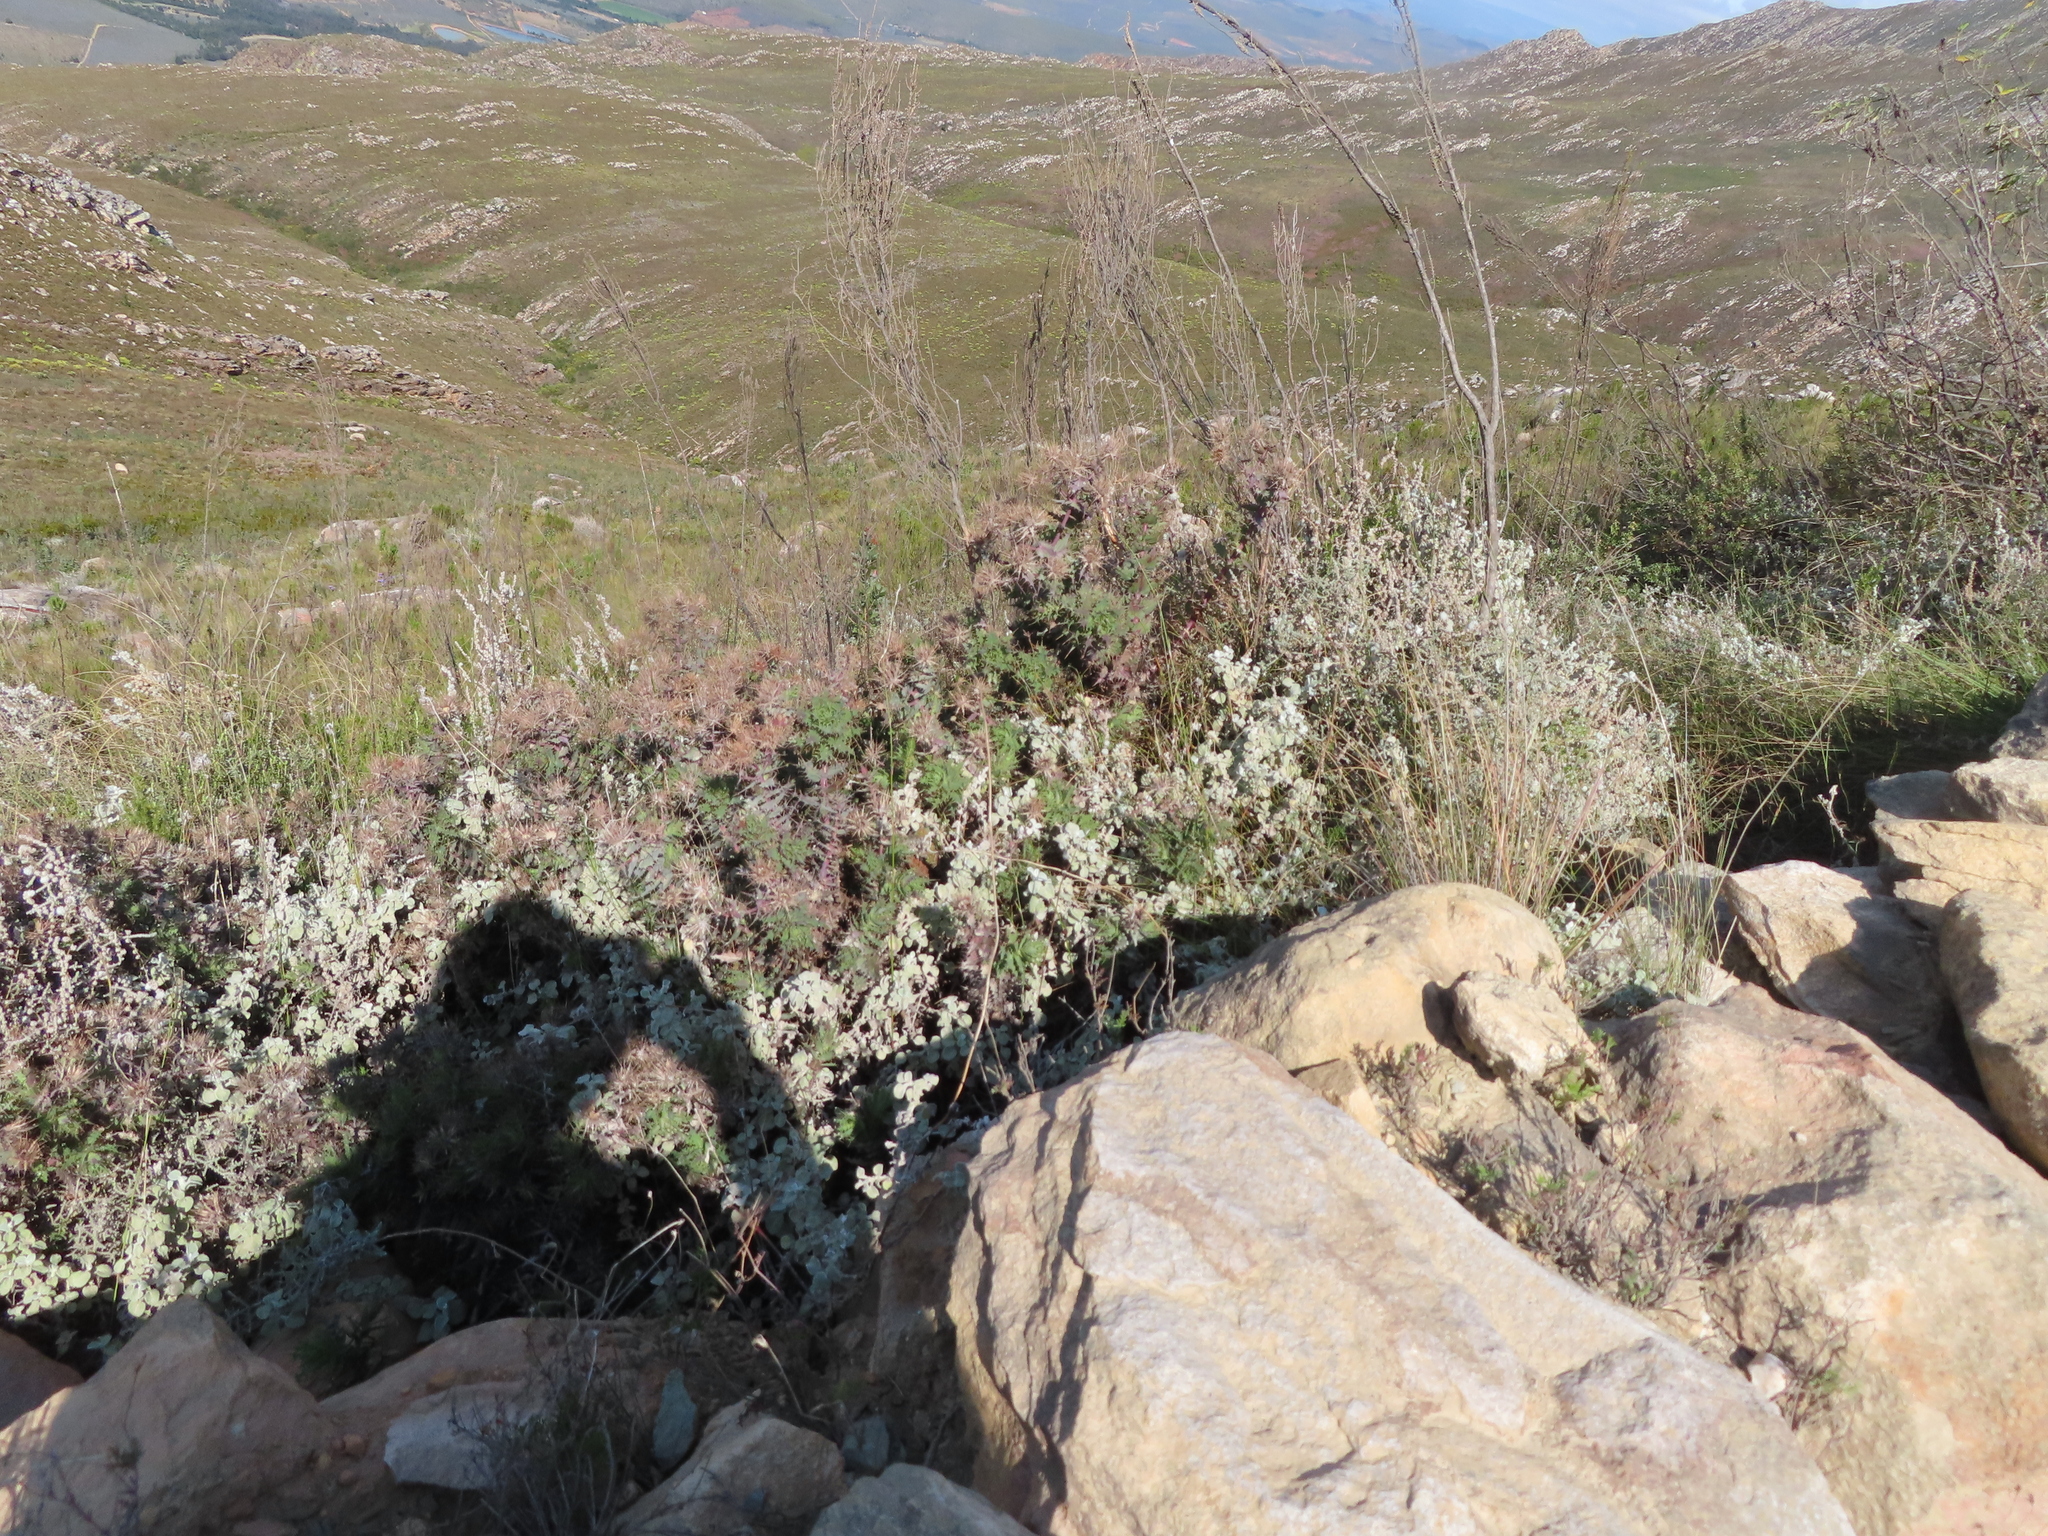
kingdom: Plantae
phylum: Tracheophyta
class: Magnoliopsida
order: Asterales
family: Asteraceae
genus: Berkheya
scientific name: Berkheya cruciata
